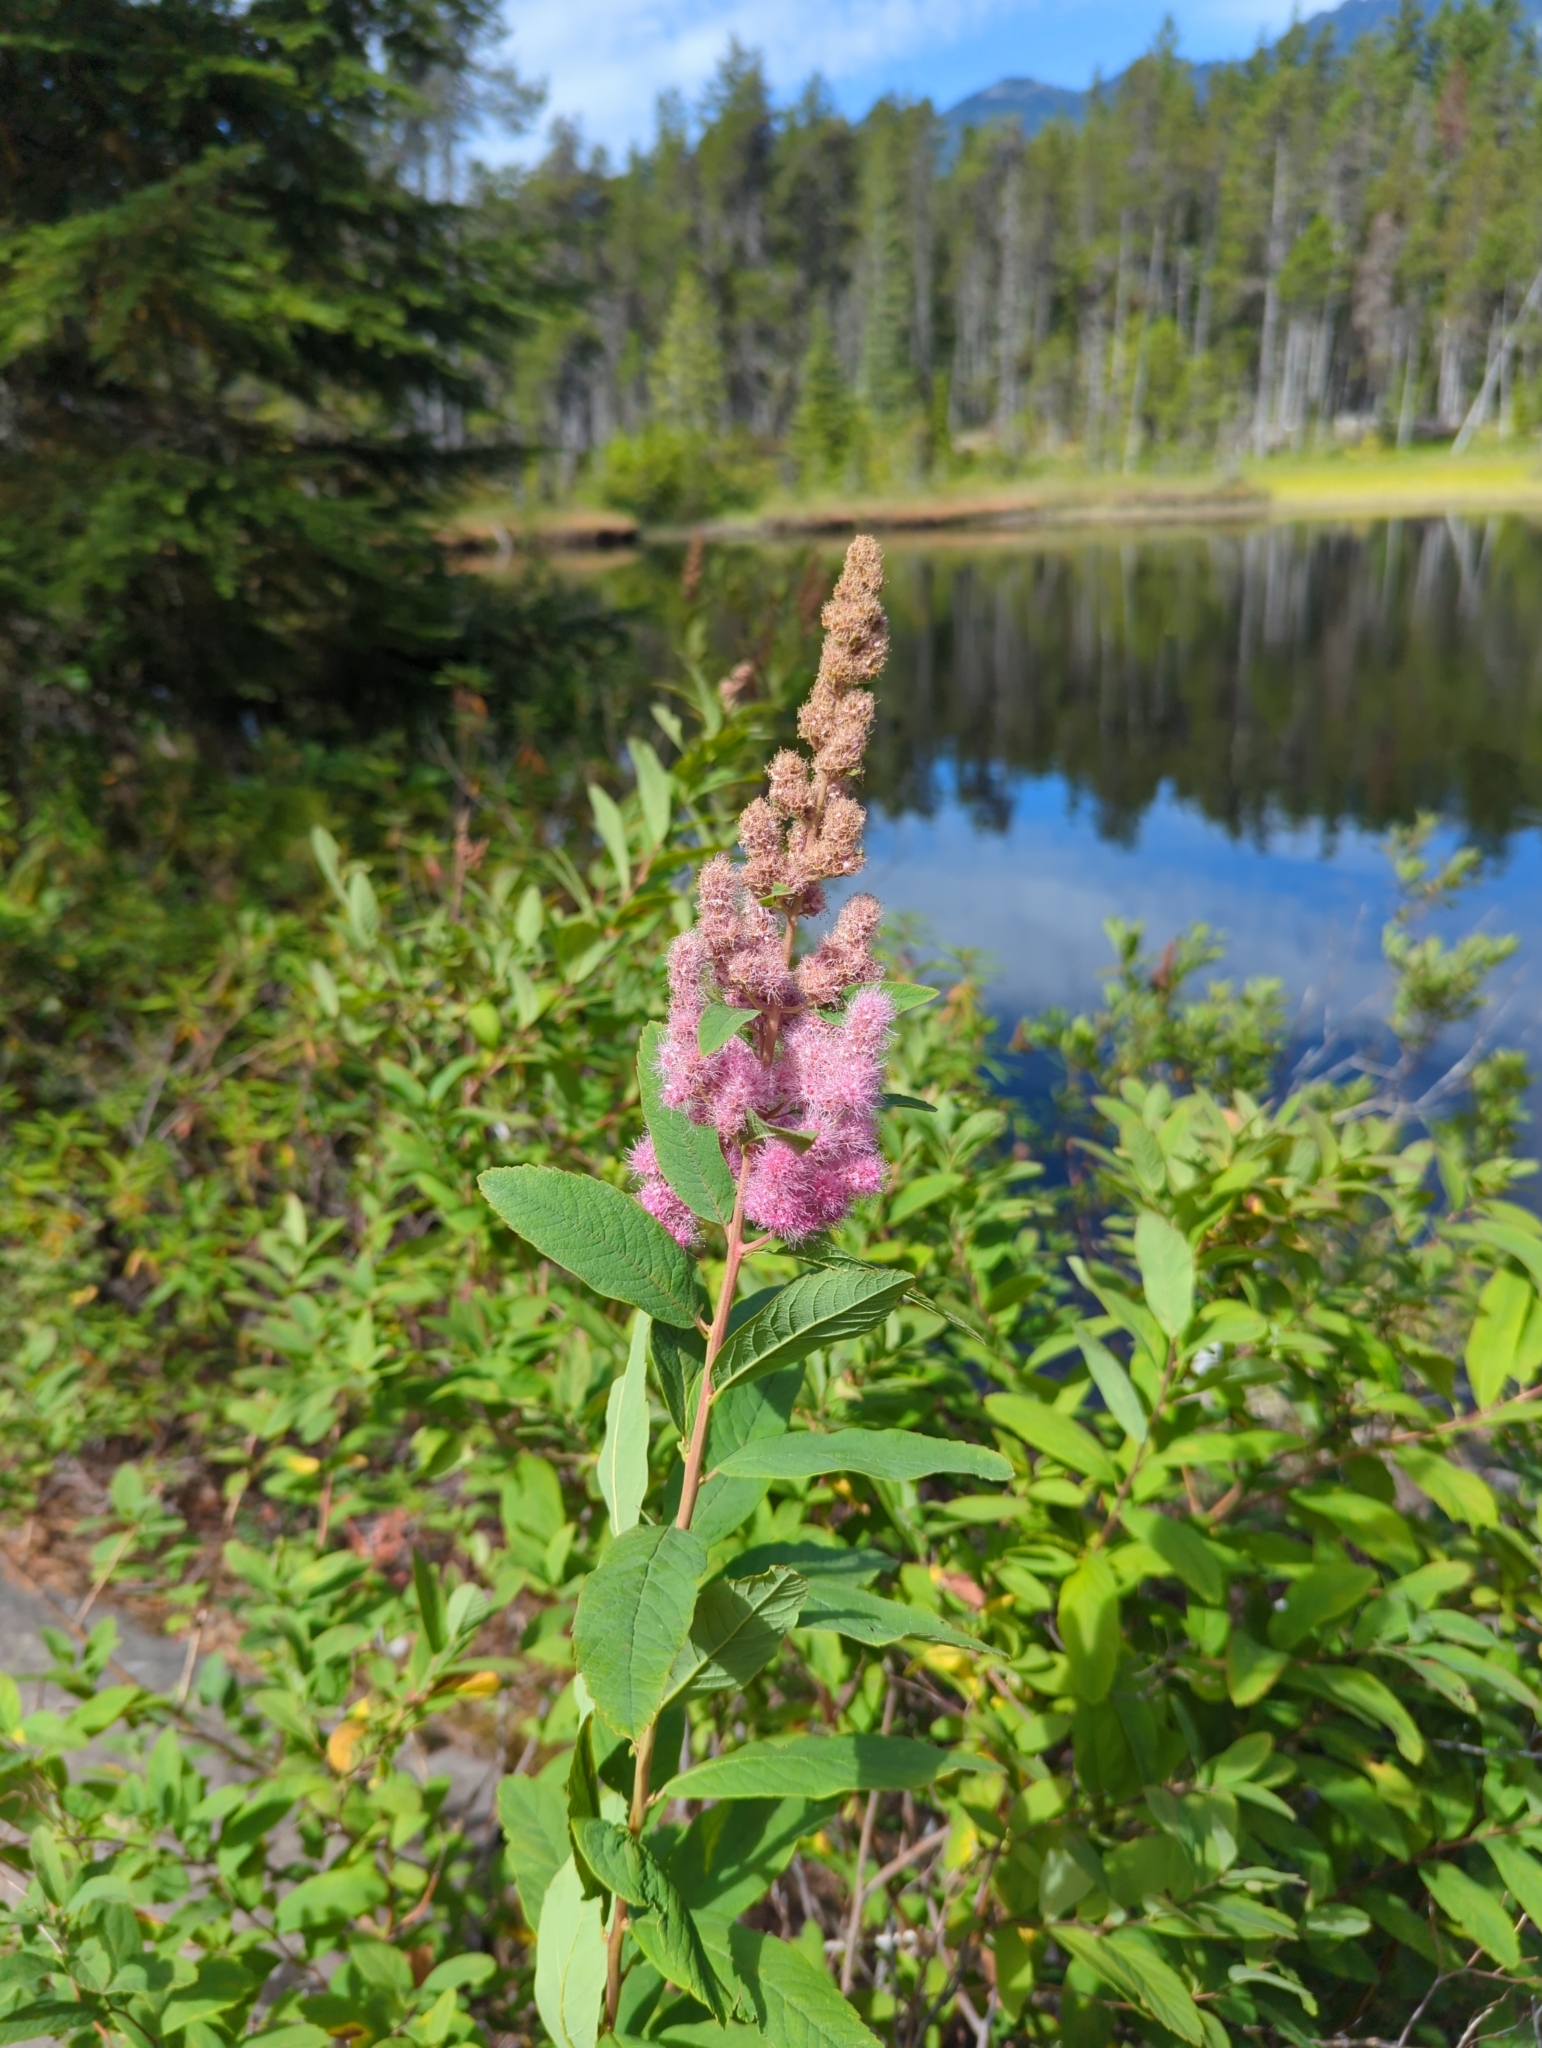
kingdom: Plantae
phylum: Tracheophyta
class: Magnoliopsida
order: Rosales
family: Rosaceae
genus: Spiraea
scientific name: Spiraea douglasii
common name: Steeplebush
